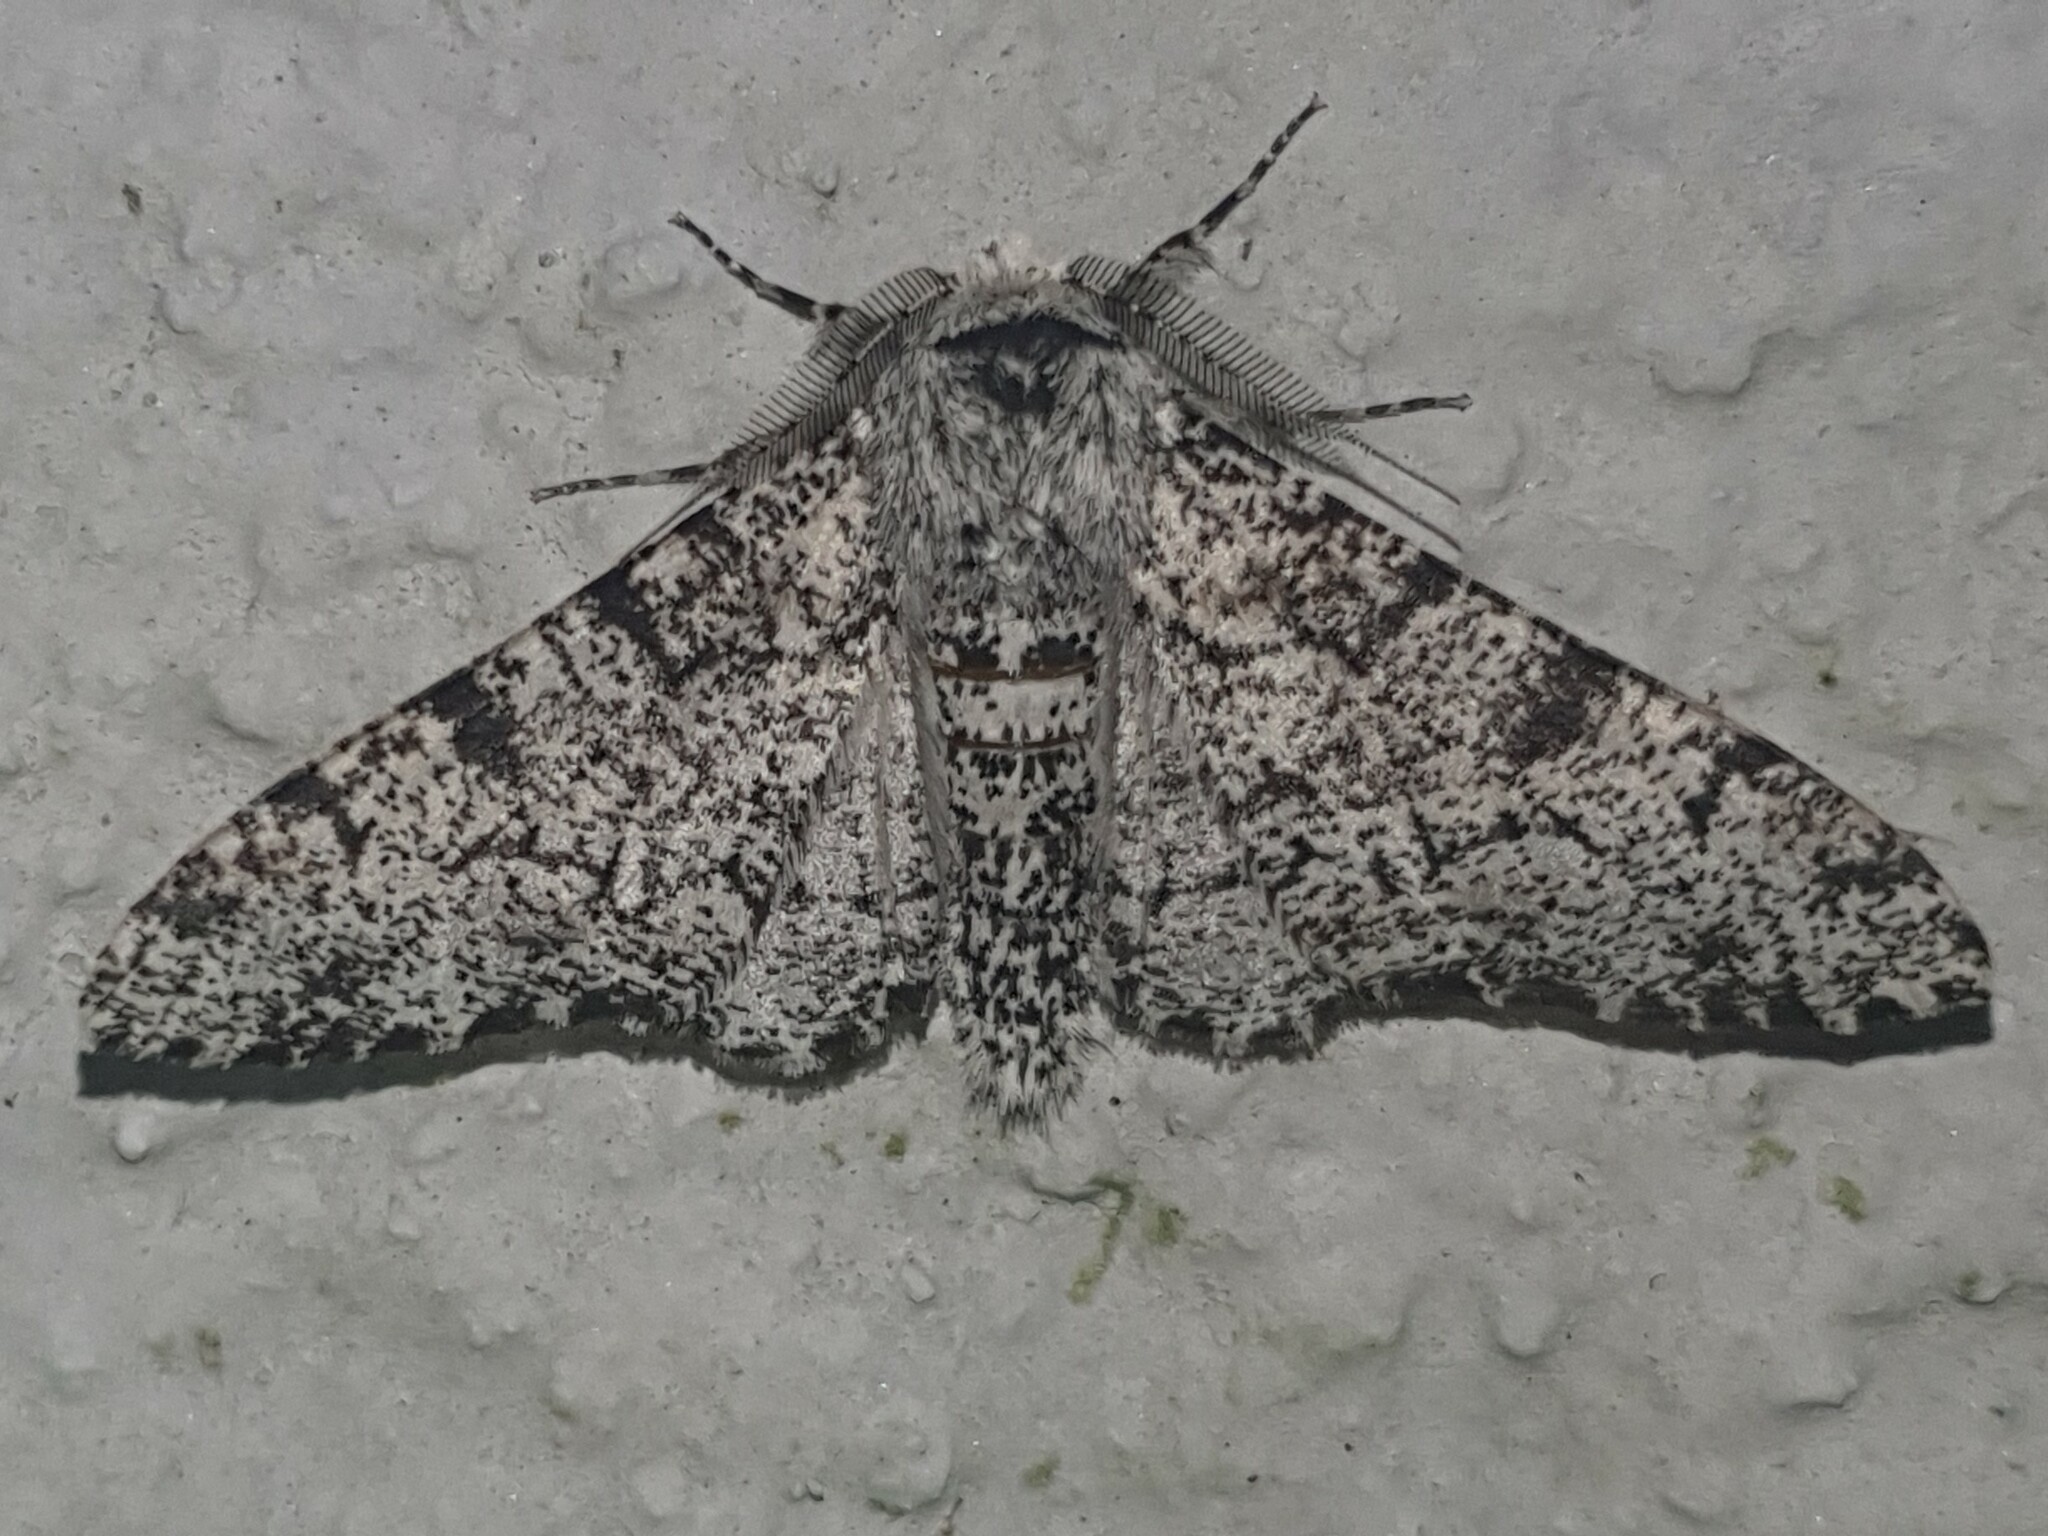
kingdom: Animalia
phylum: Arthropoda
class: Insecta
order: Lepidoptera
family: Geometridae
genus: Biston
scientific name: Biston betularia
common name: Peppered moth
